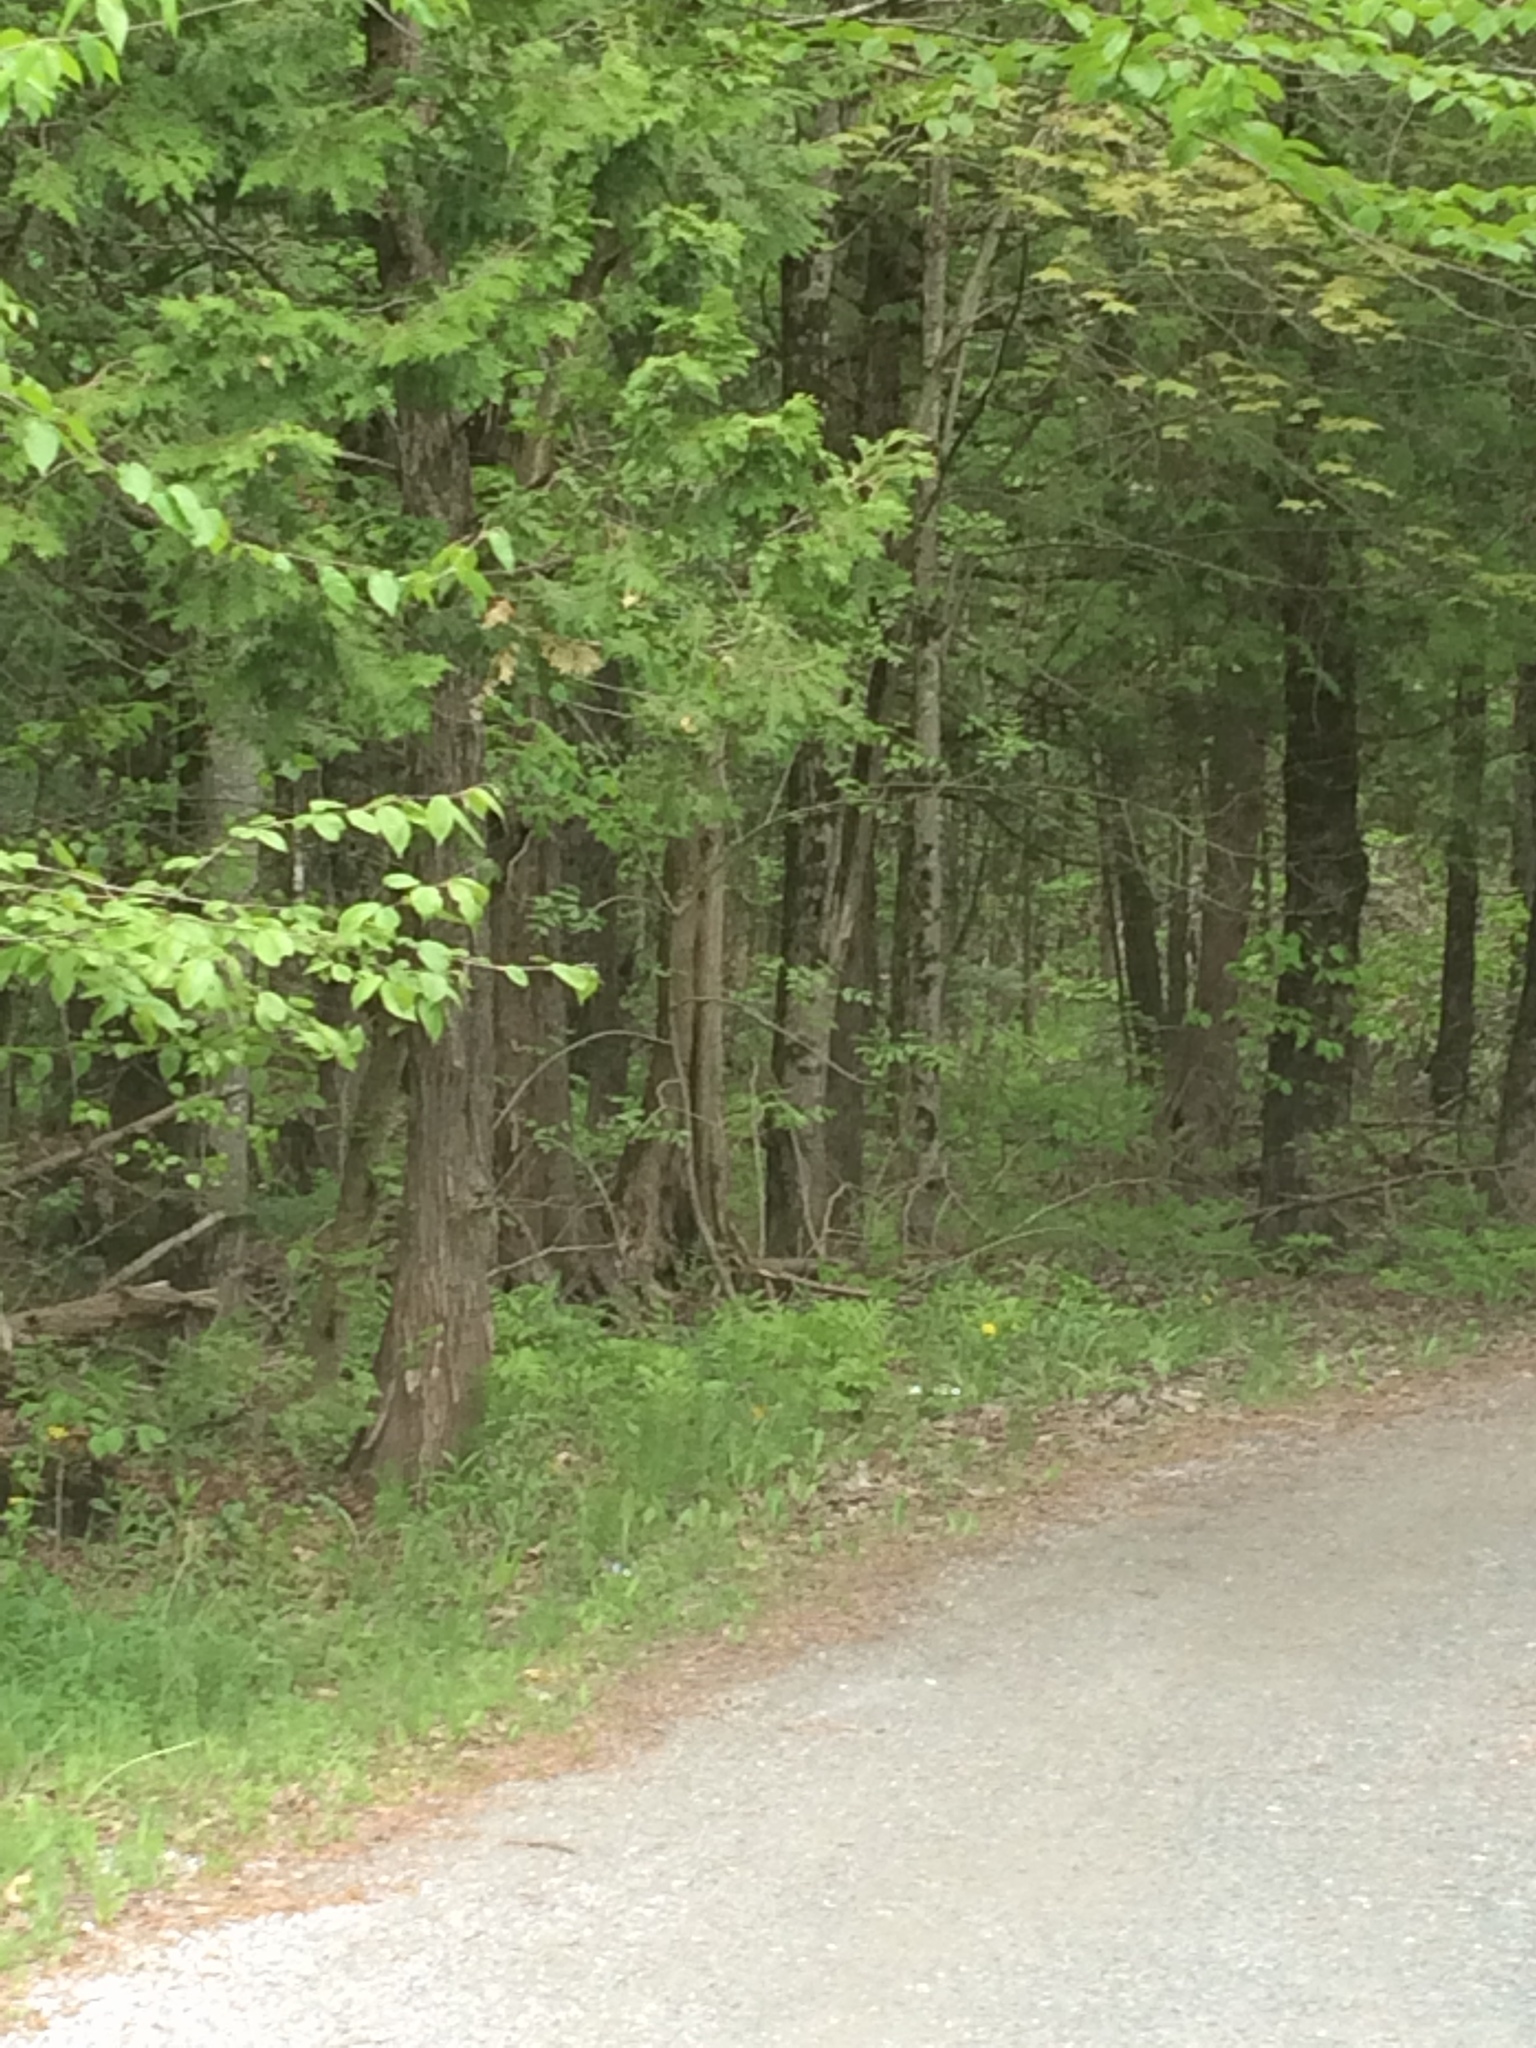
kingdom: Plantae
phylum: Tracheophyta
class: Pinopsida
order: Pinales
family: Cupressaceae
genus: Thuja
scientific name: Thuja occidentalis
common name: Northern white-cedar
